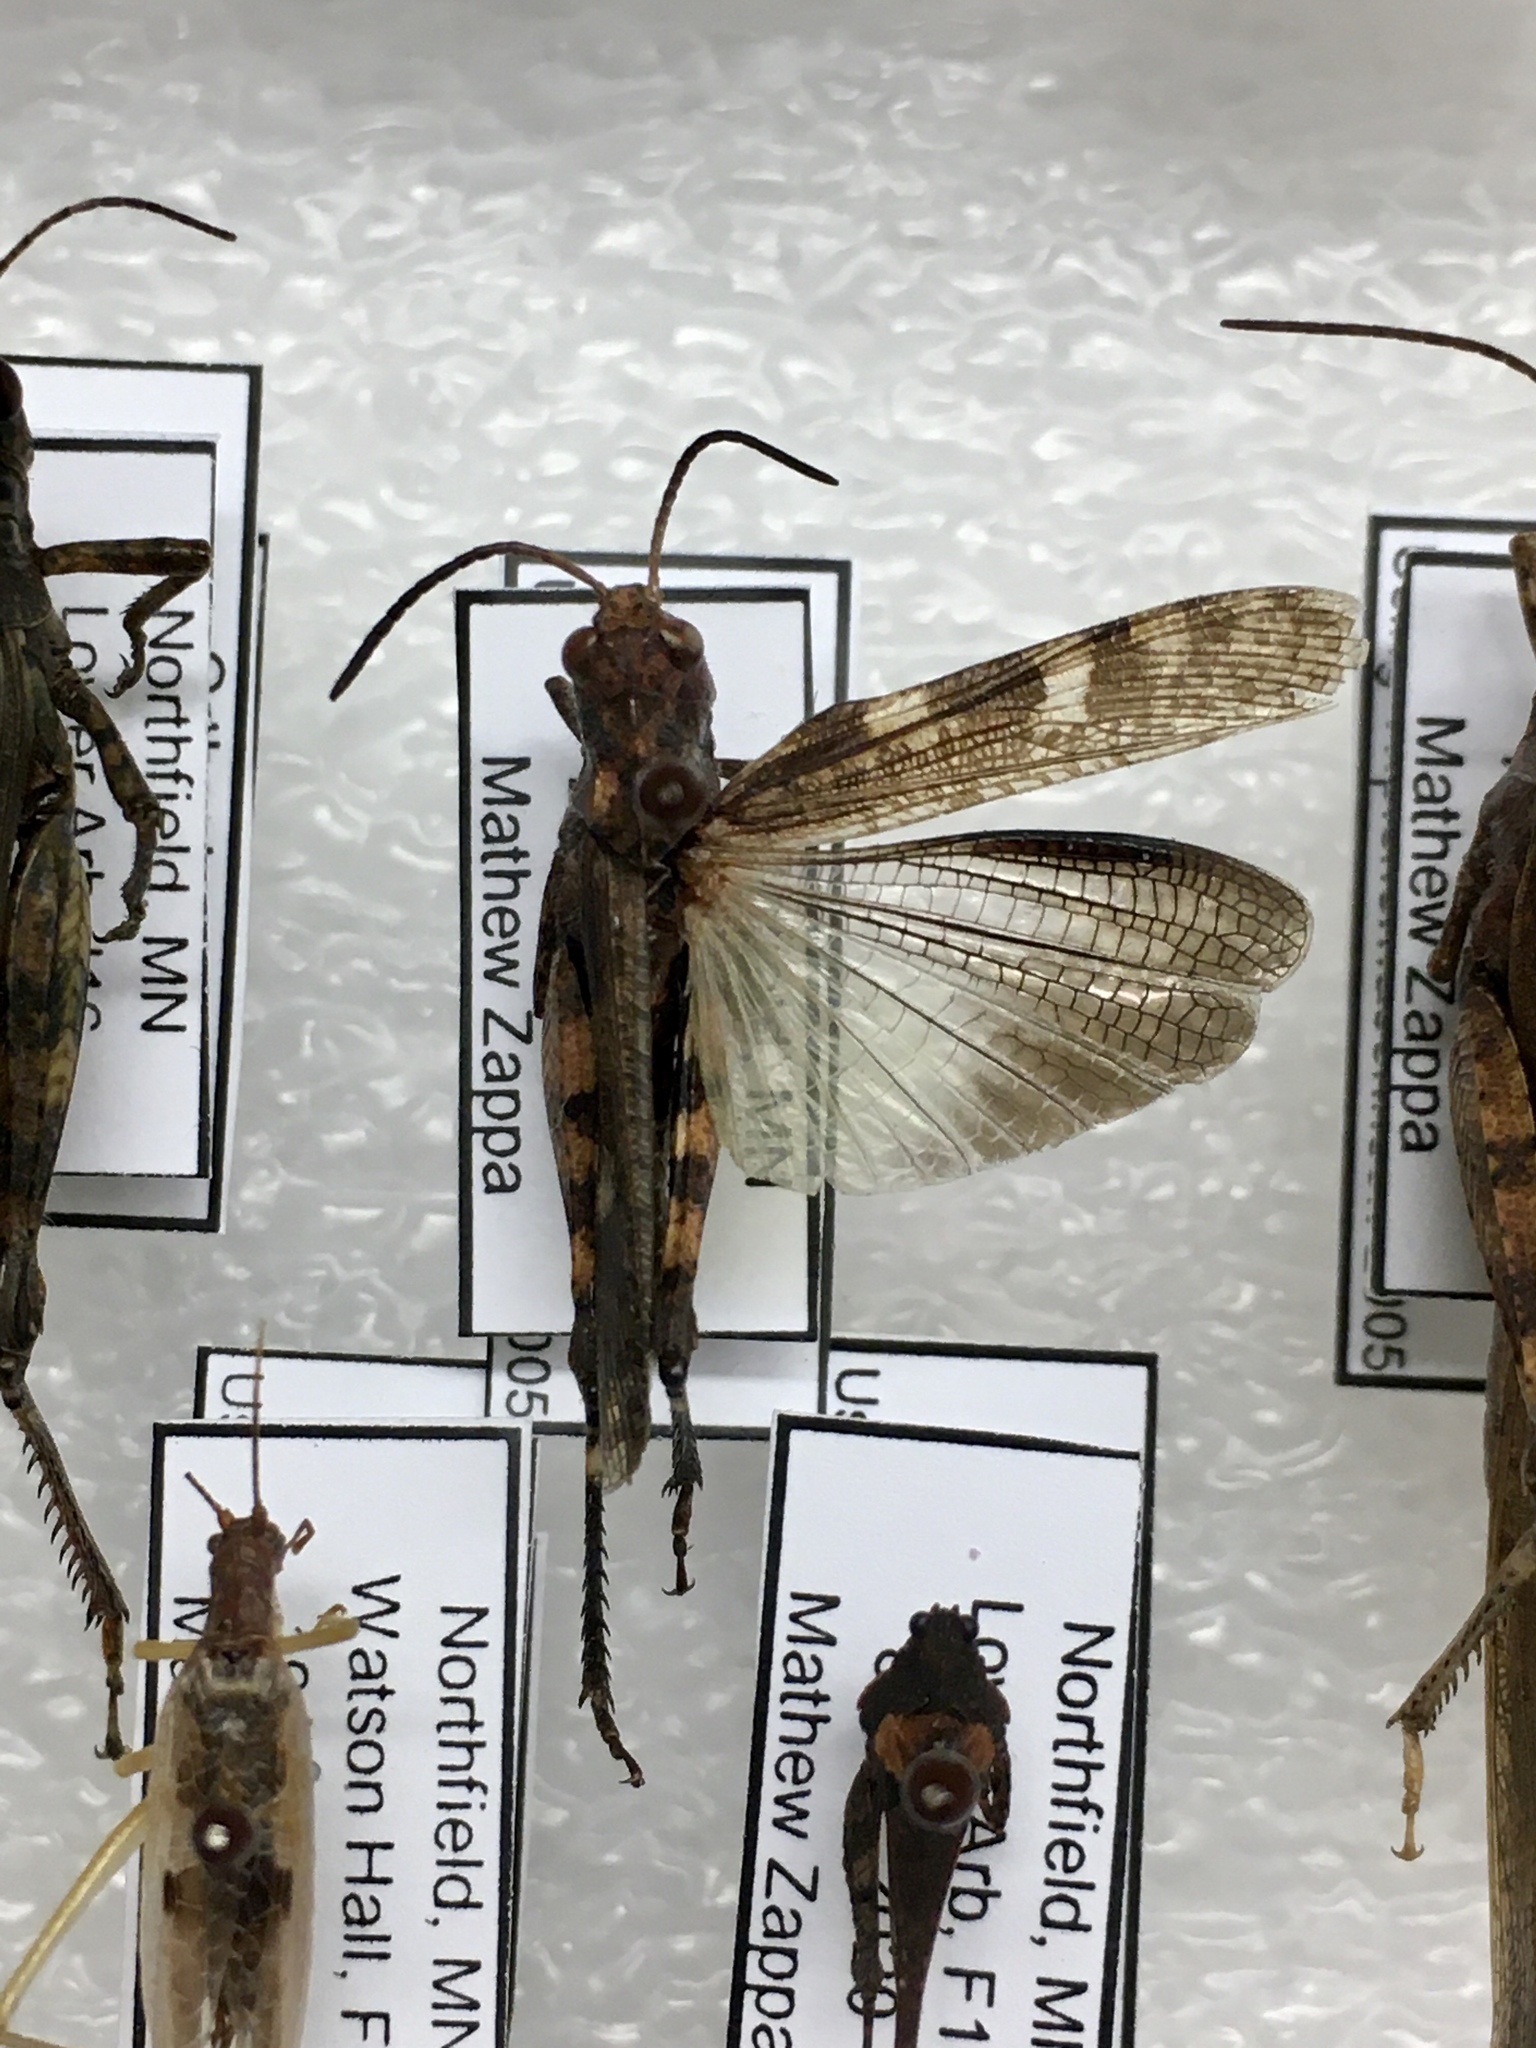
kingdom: Animalia
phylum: Arthropoda
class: Insecta
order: Orthoptera
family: Acrididae
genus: Encoptolophus
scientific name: Encoptolophus sordidus
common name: Dusky grasshopper
